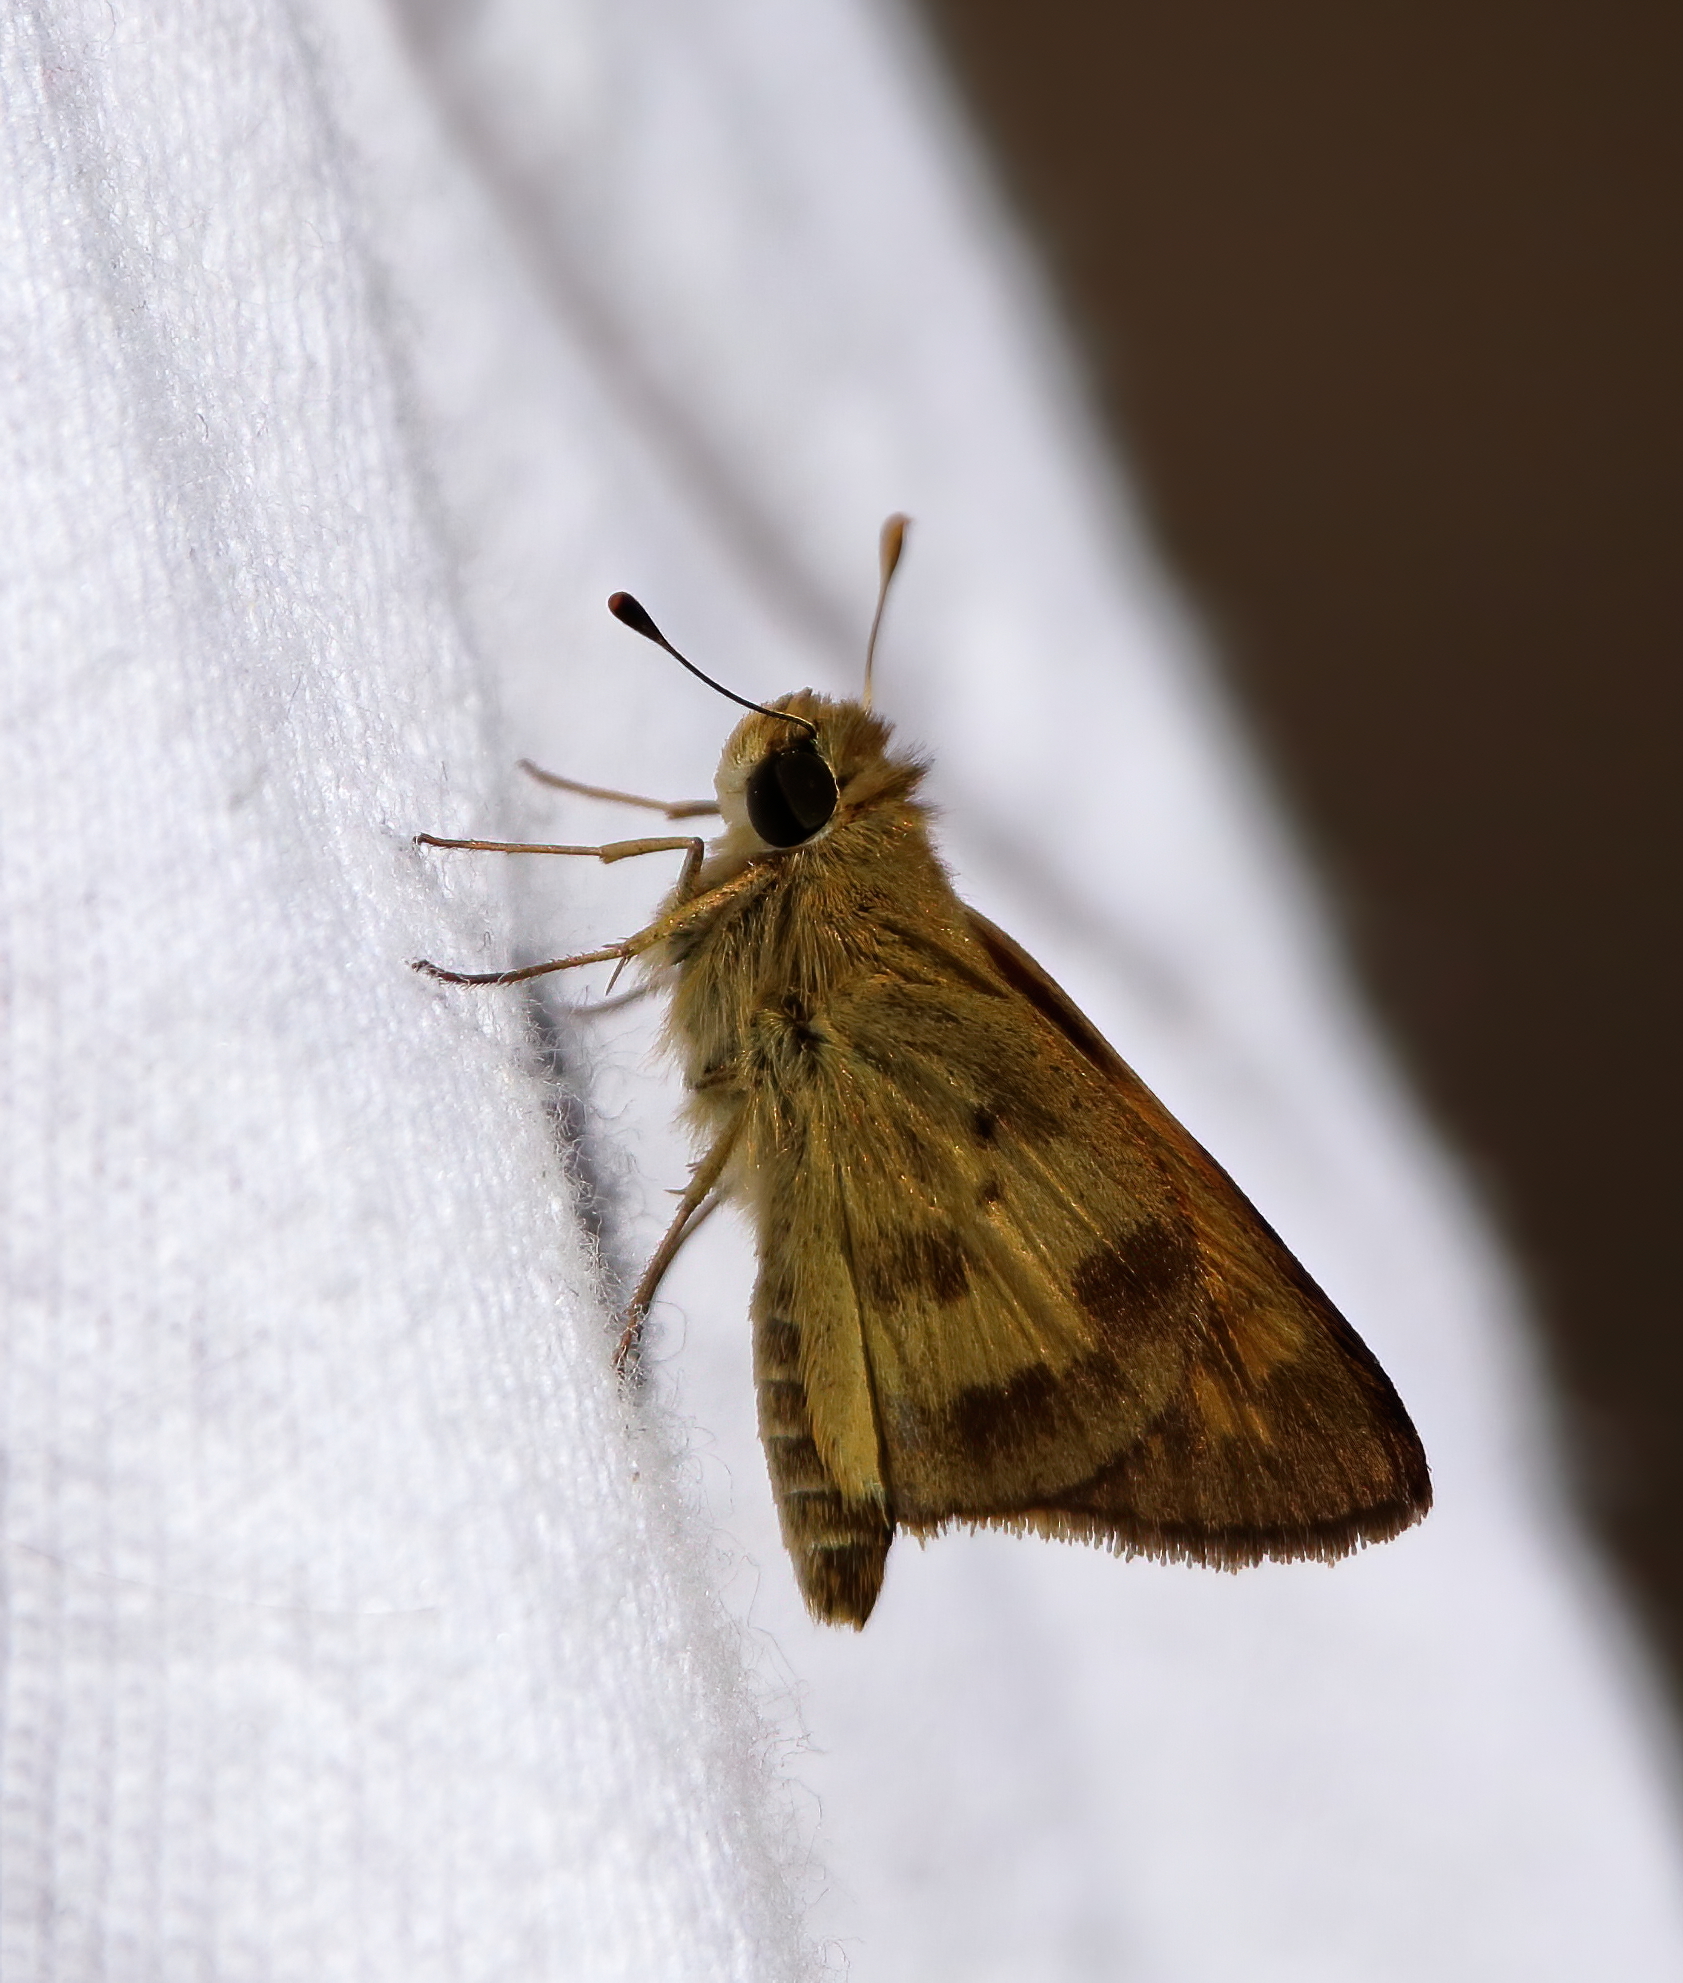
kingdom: Animalia
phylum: Arthropoda
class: Insecta
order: Lepidoptera
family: Hesperiidae
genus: Polites
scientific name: Polites vibex
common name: Whirlabout
